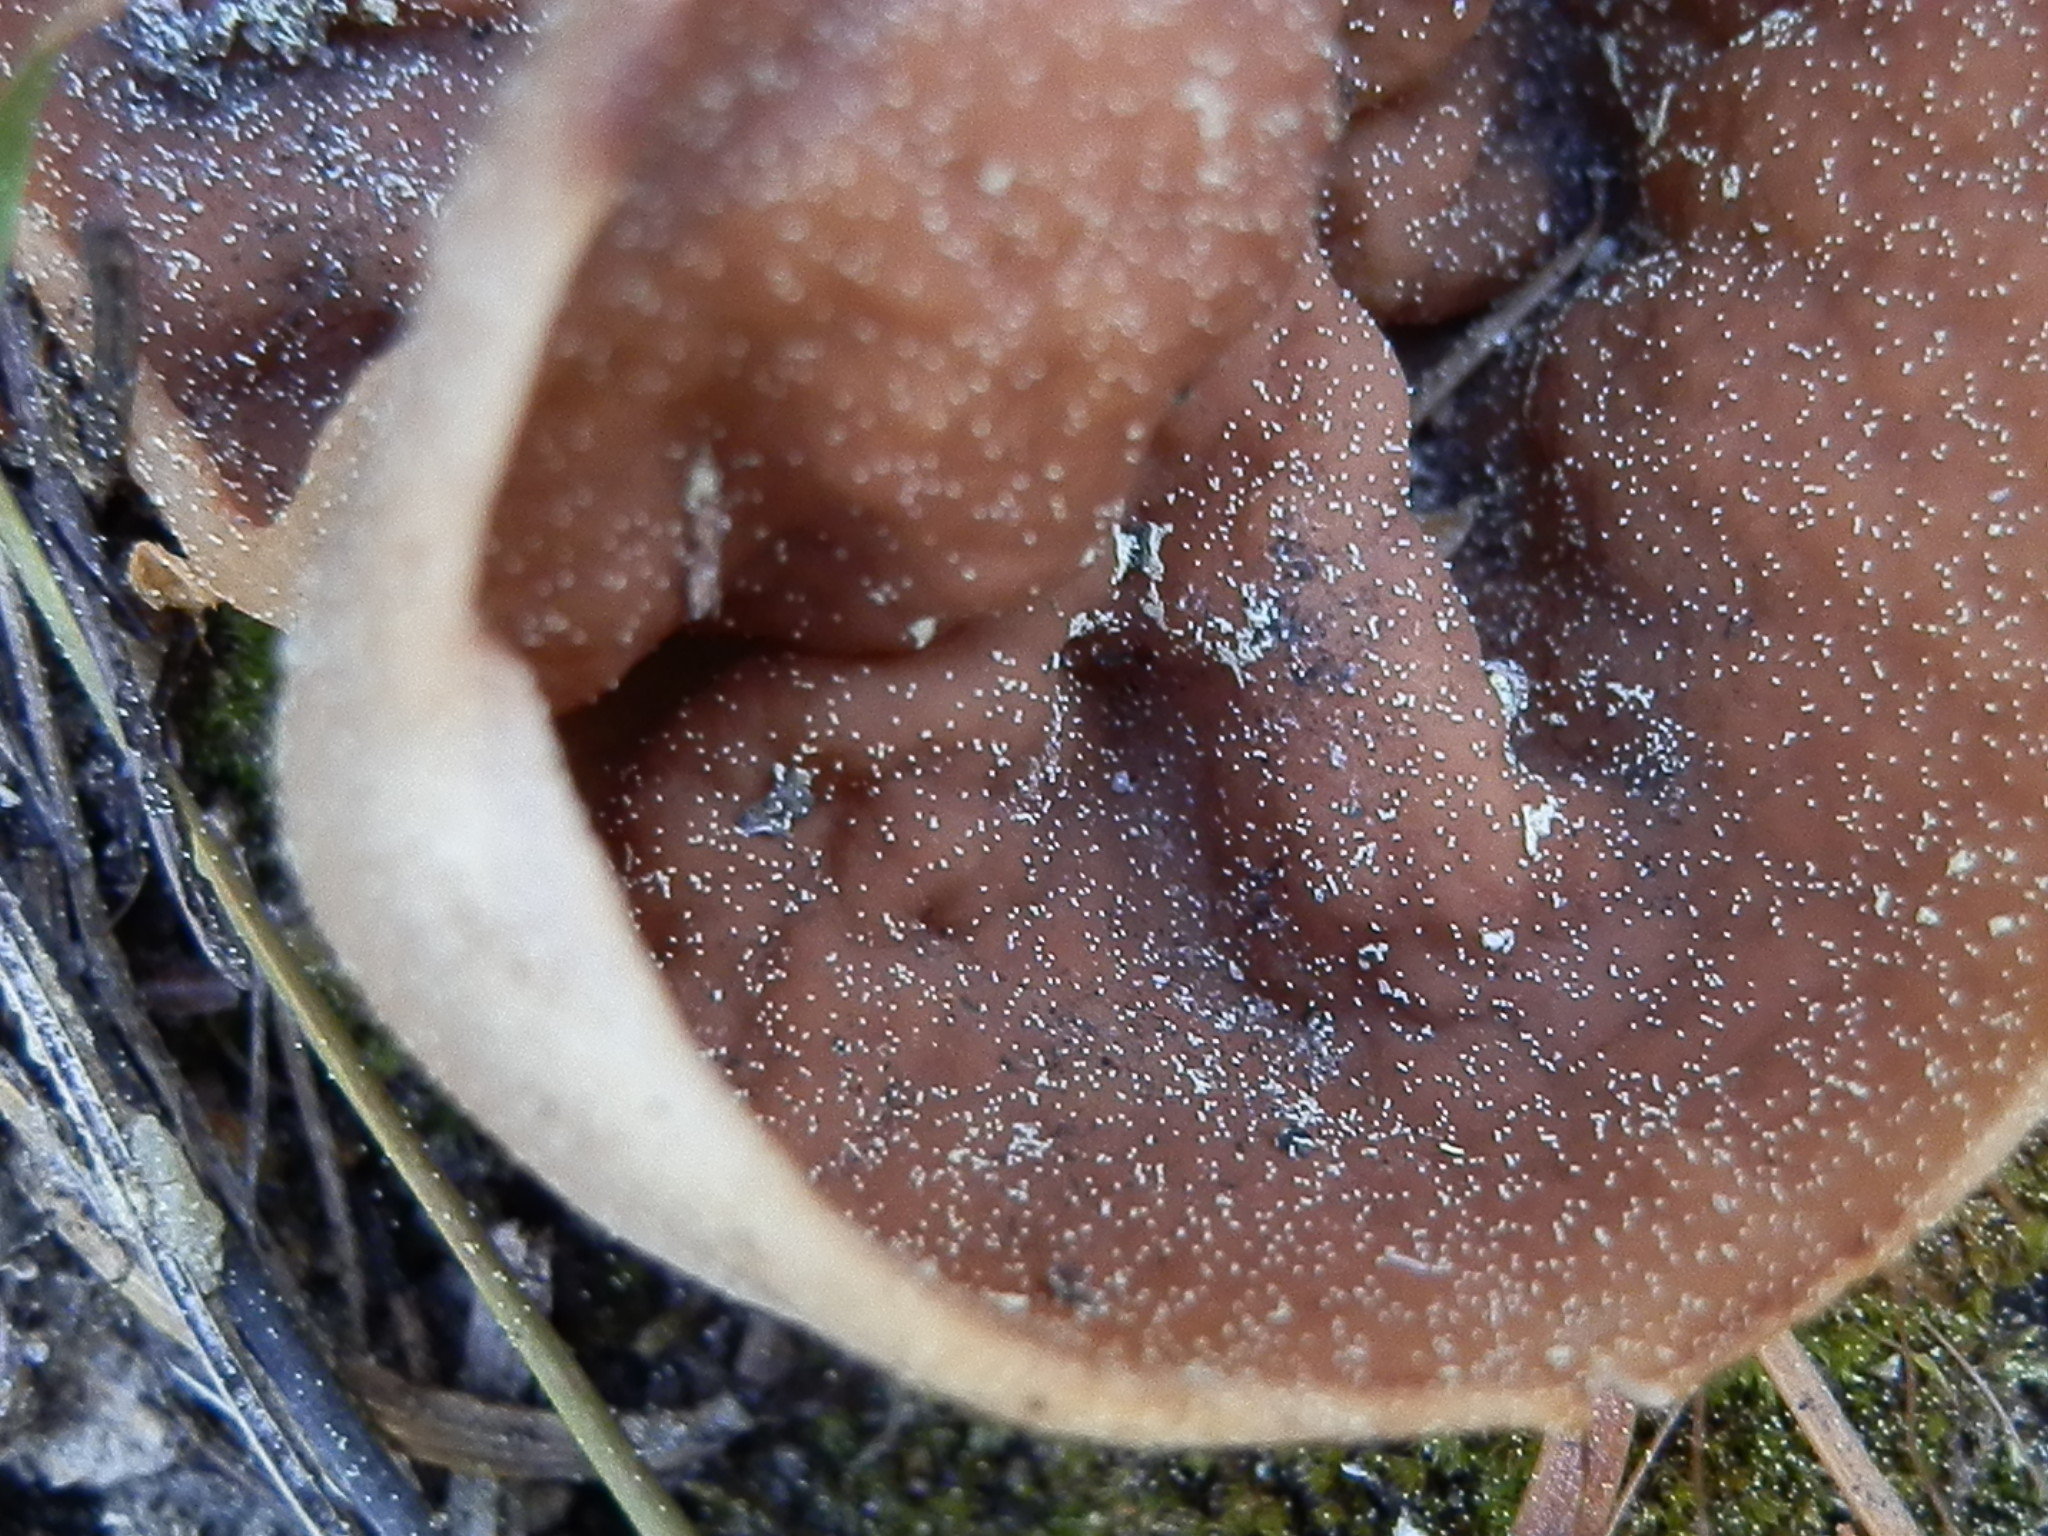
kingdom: Fungi
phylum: Ascomycota
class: Pezizomycetes
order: Pezizales
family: Discinaceae
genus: Discina
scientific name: Discina ancilis
